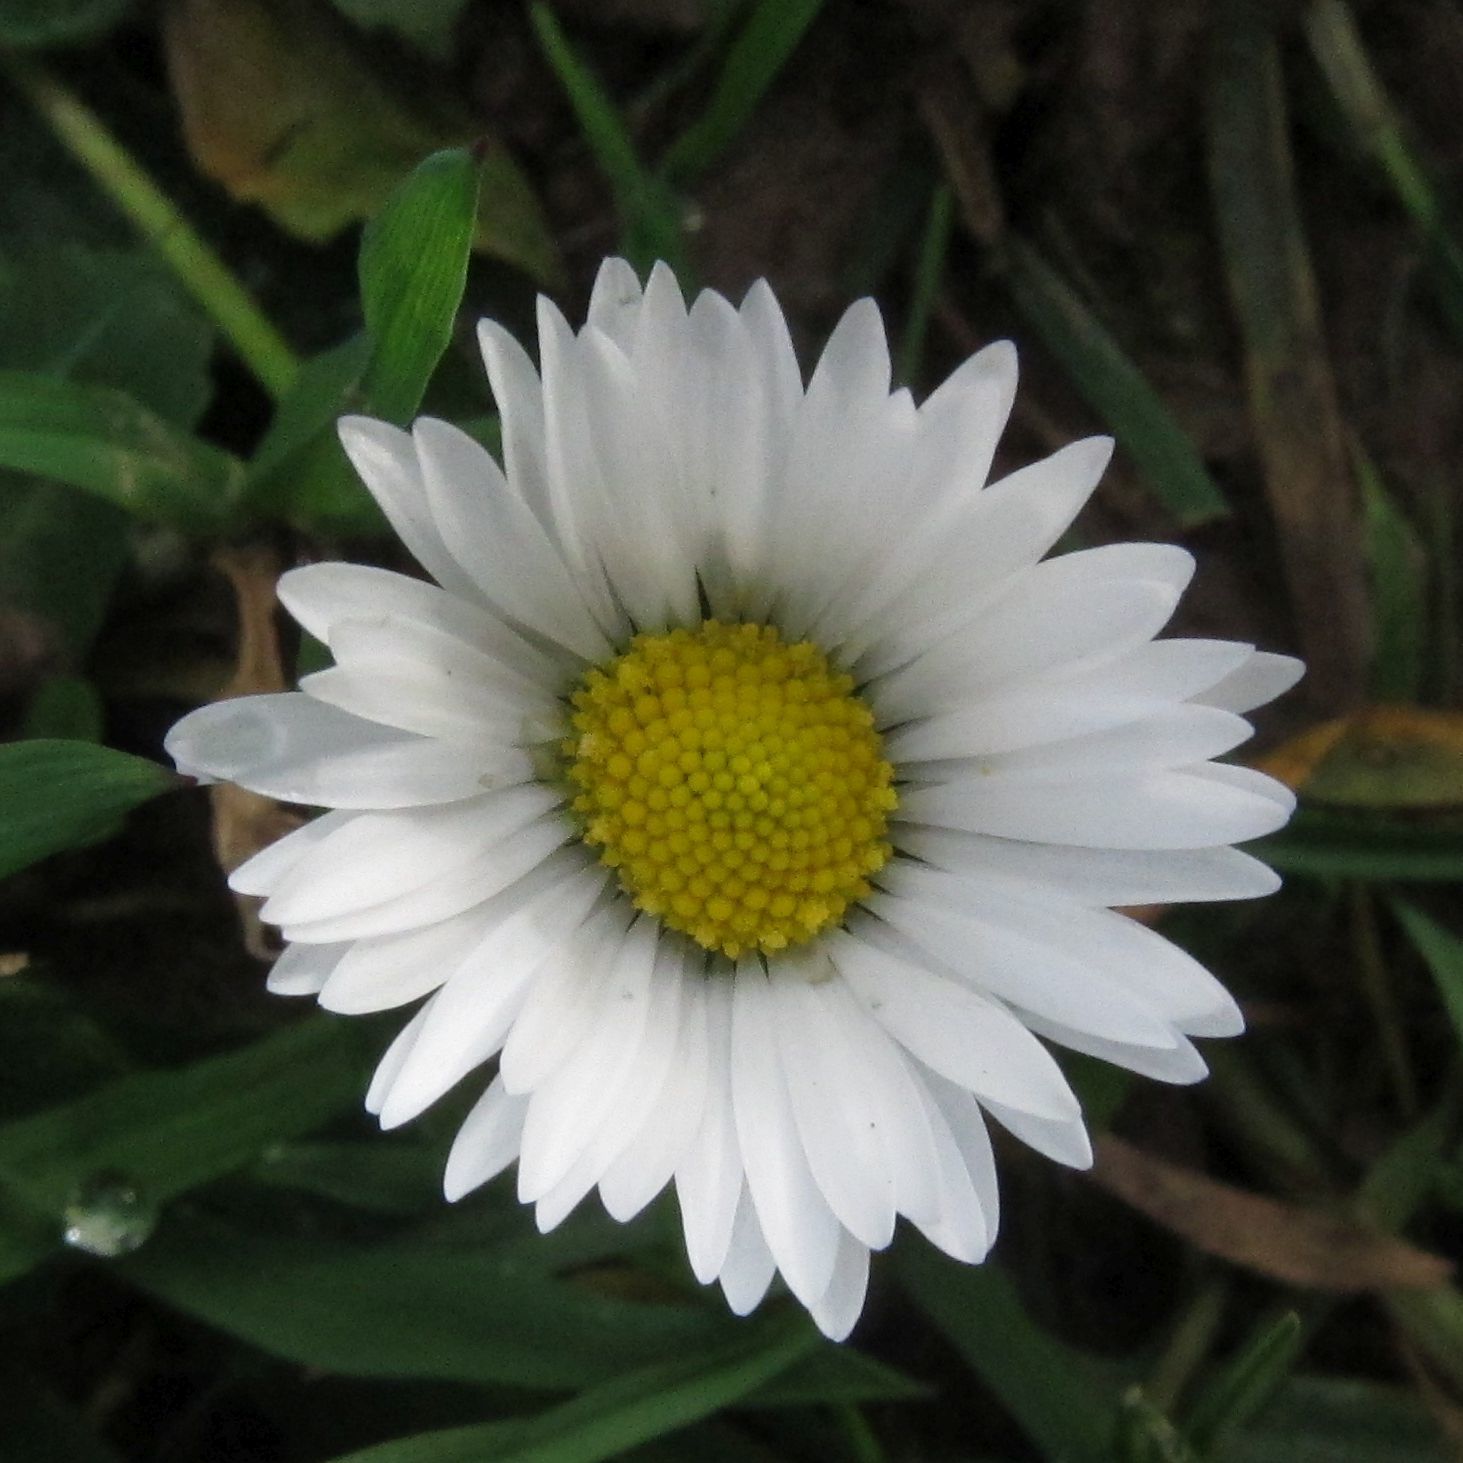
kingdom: Plantae
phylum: Tracheophyta
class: Magnoliopsida
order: Asterales
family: Asteraceae
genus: Bellis
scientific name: Bellis perennis
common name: Lawndaisy
